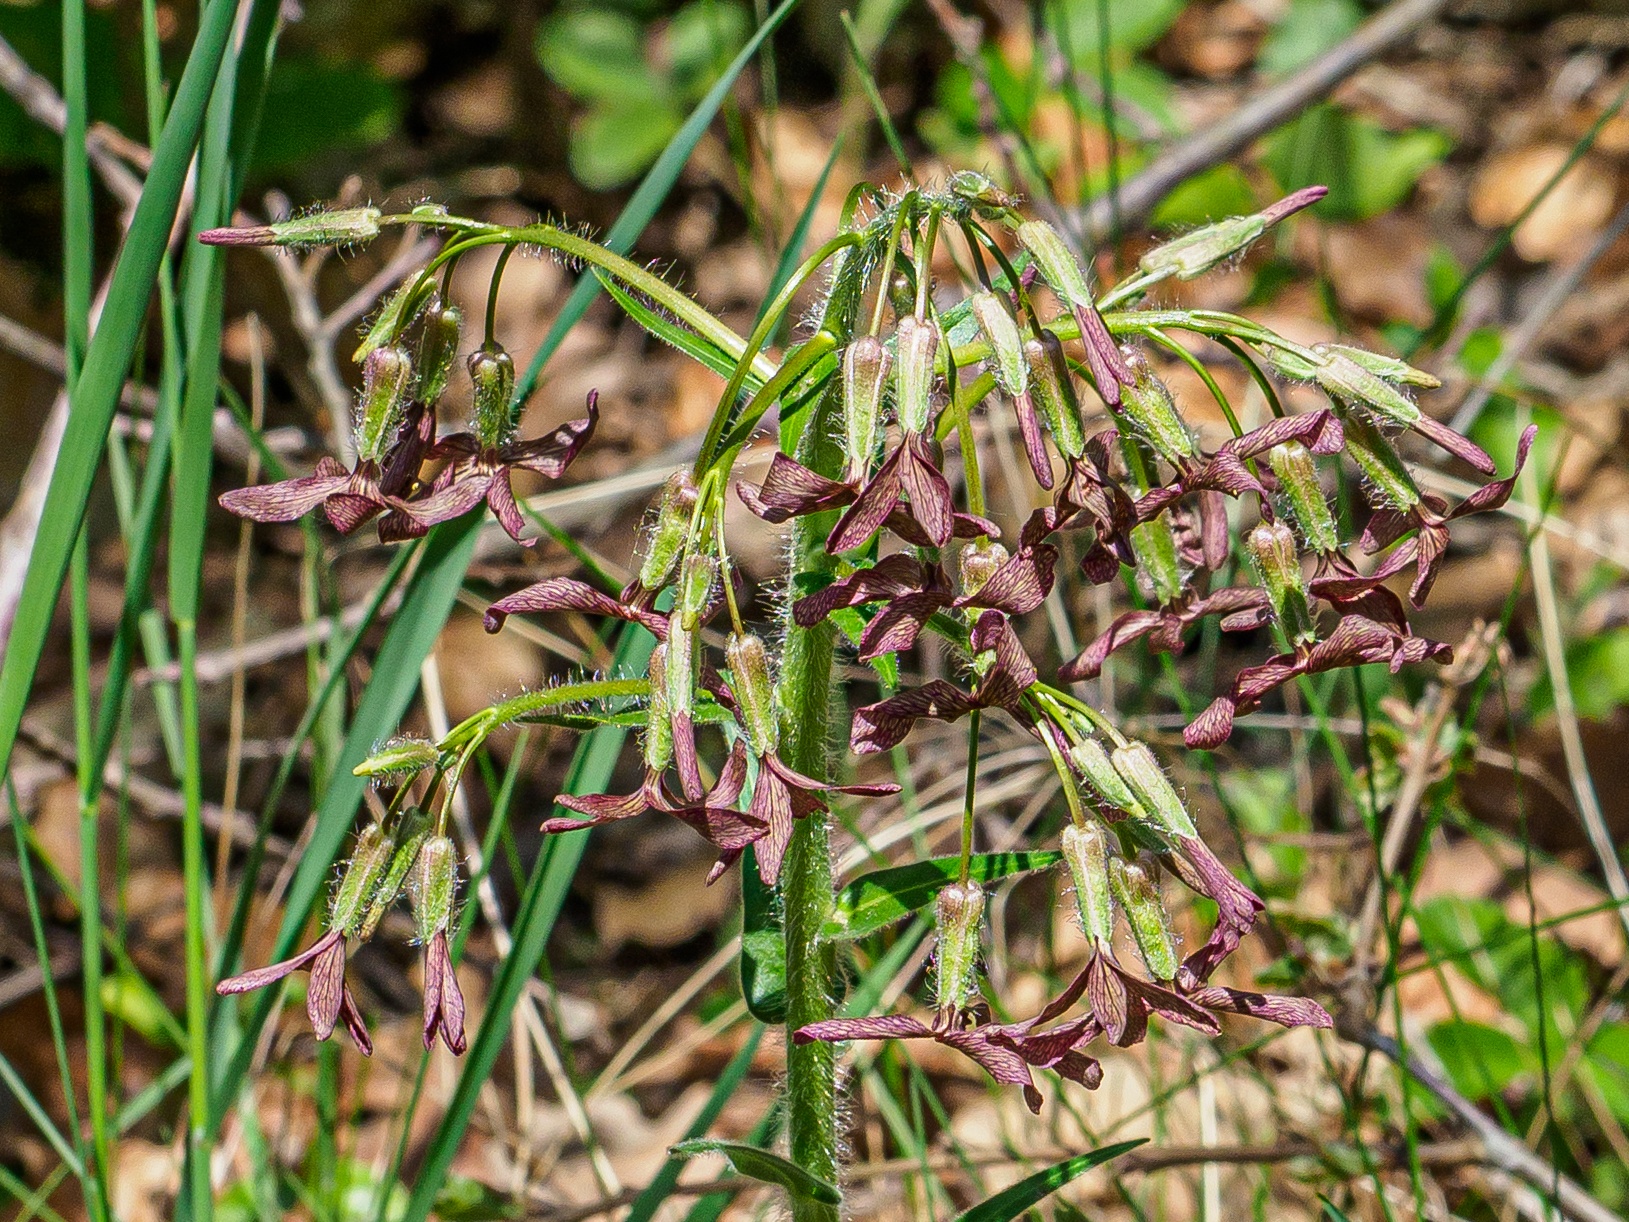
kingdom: Plantae
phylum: Tracheophyta
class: Magnoliopsida
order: Brassicales
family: Brassicaceae
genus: Hesperis
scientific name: Hesperis tristis
